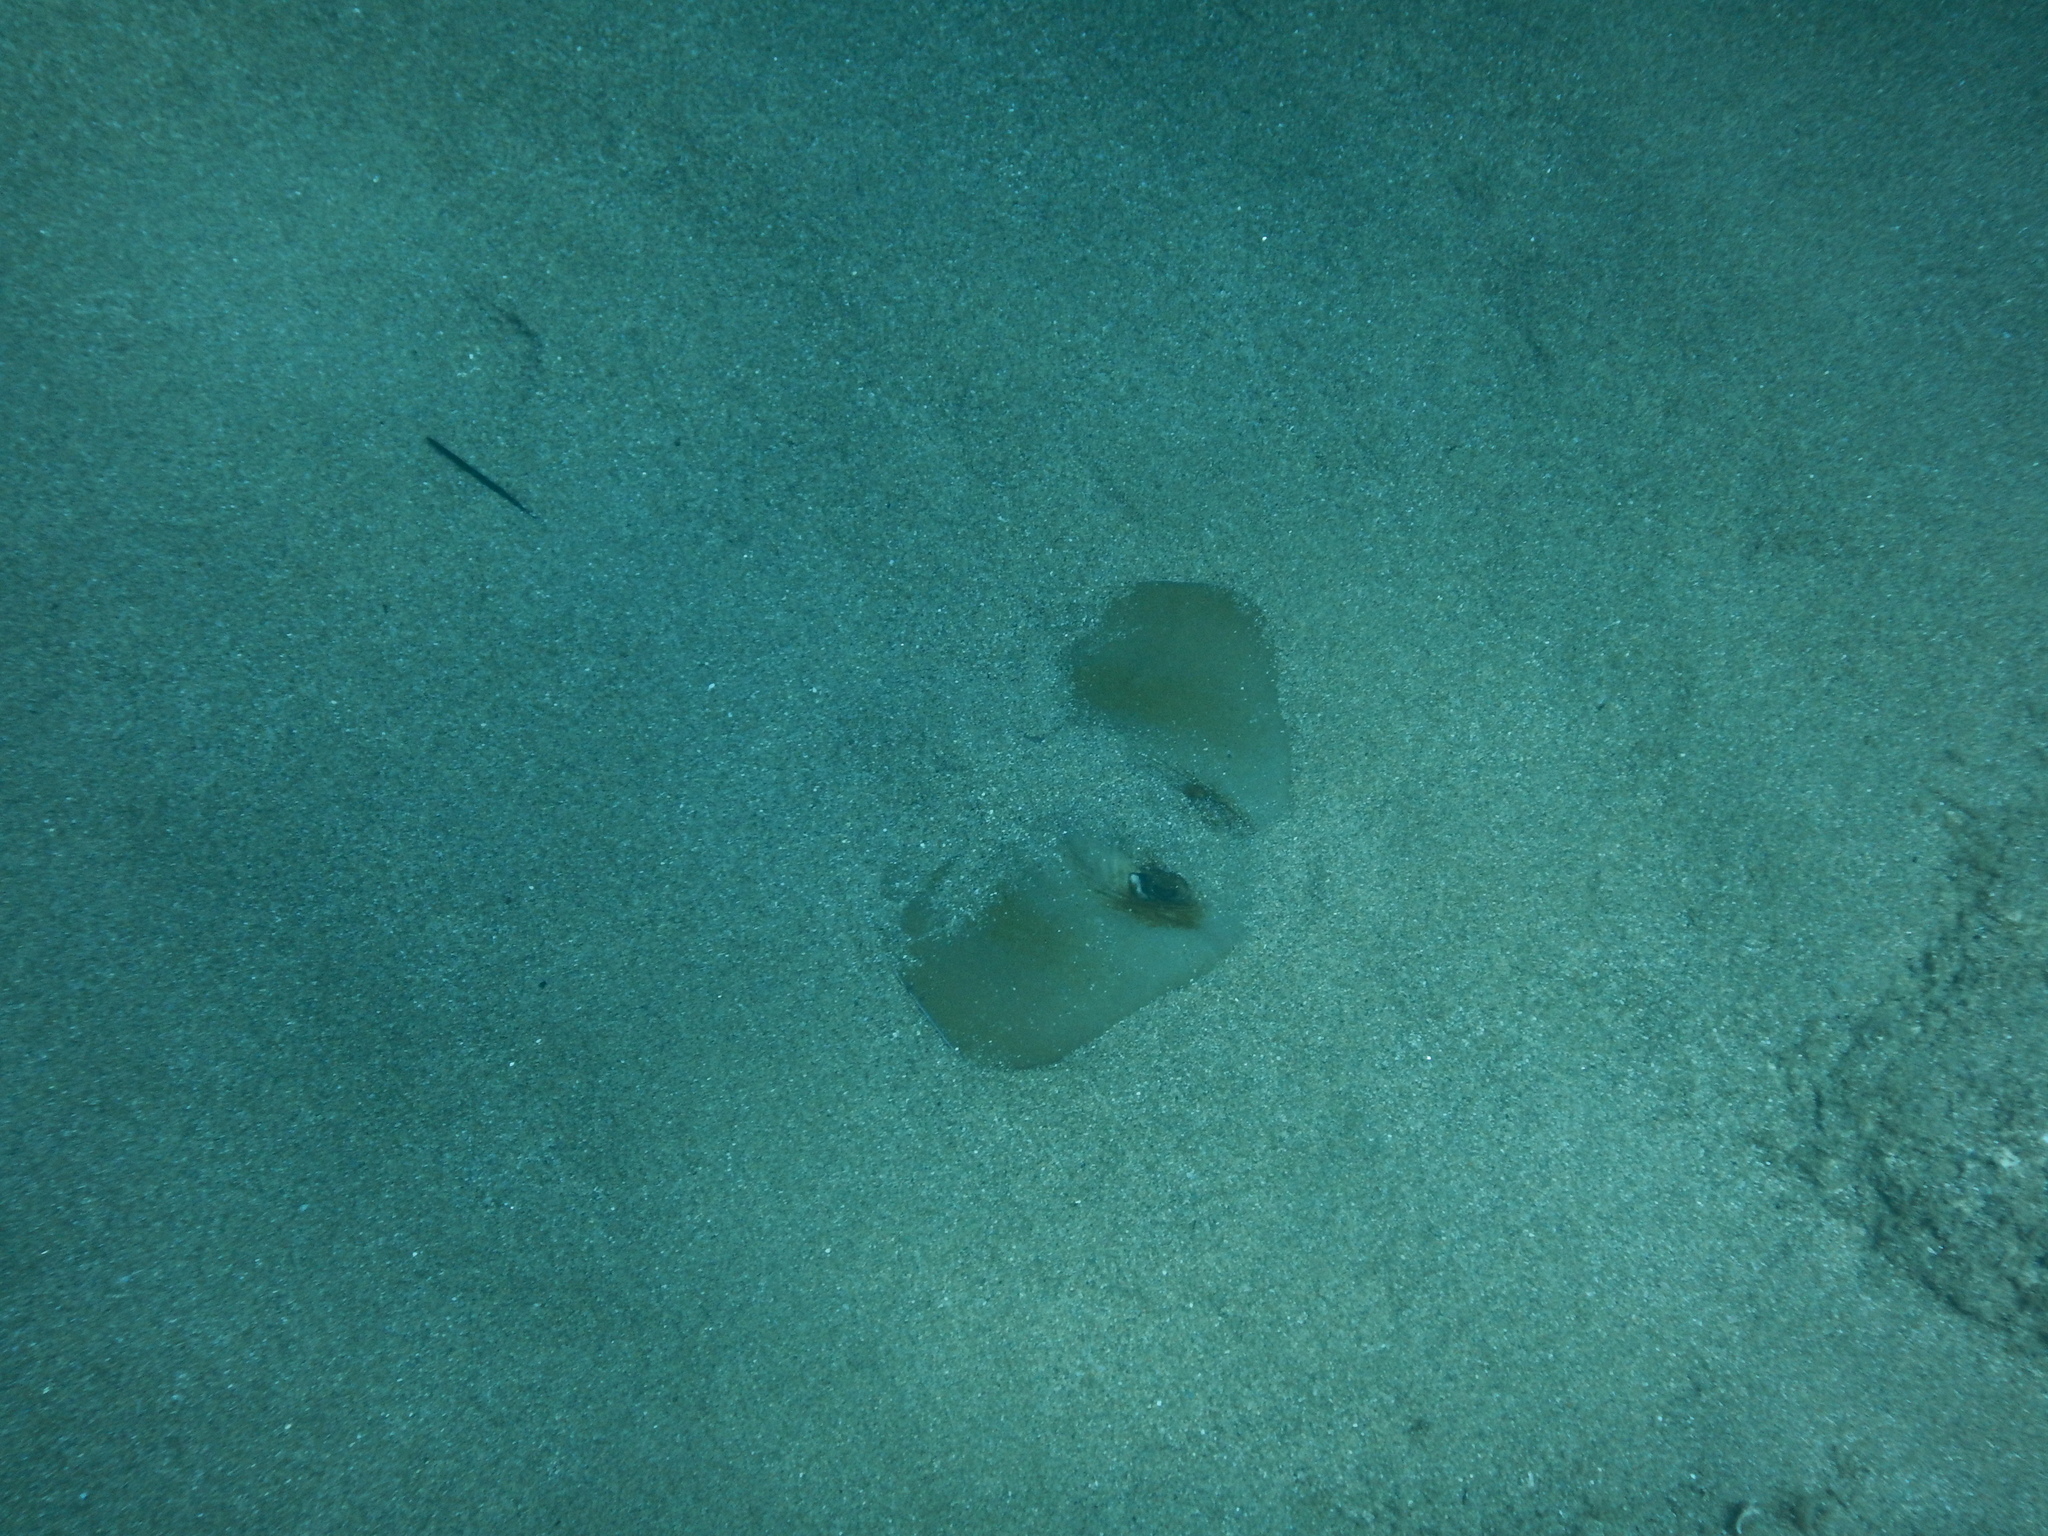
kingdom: Animalia
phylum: Chordata
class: Elasmobranchii
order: Myliobatiformes
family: Dasyatidae
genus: Dasyatis
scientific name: Dasyatis pastinaca
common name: Common stingray
